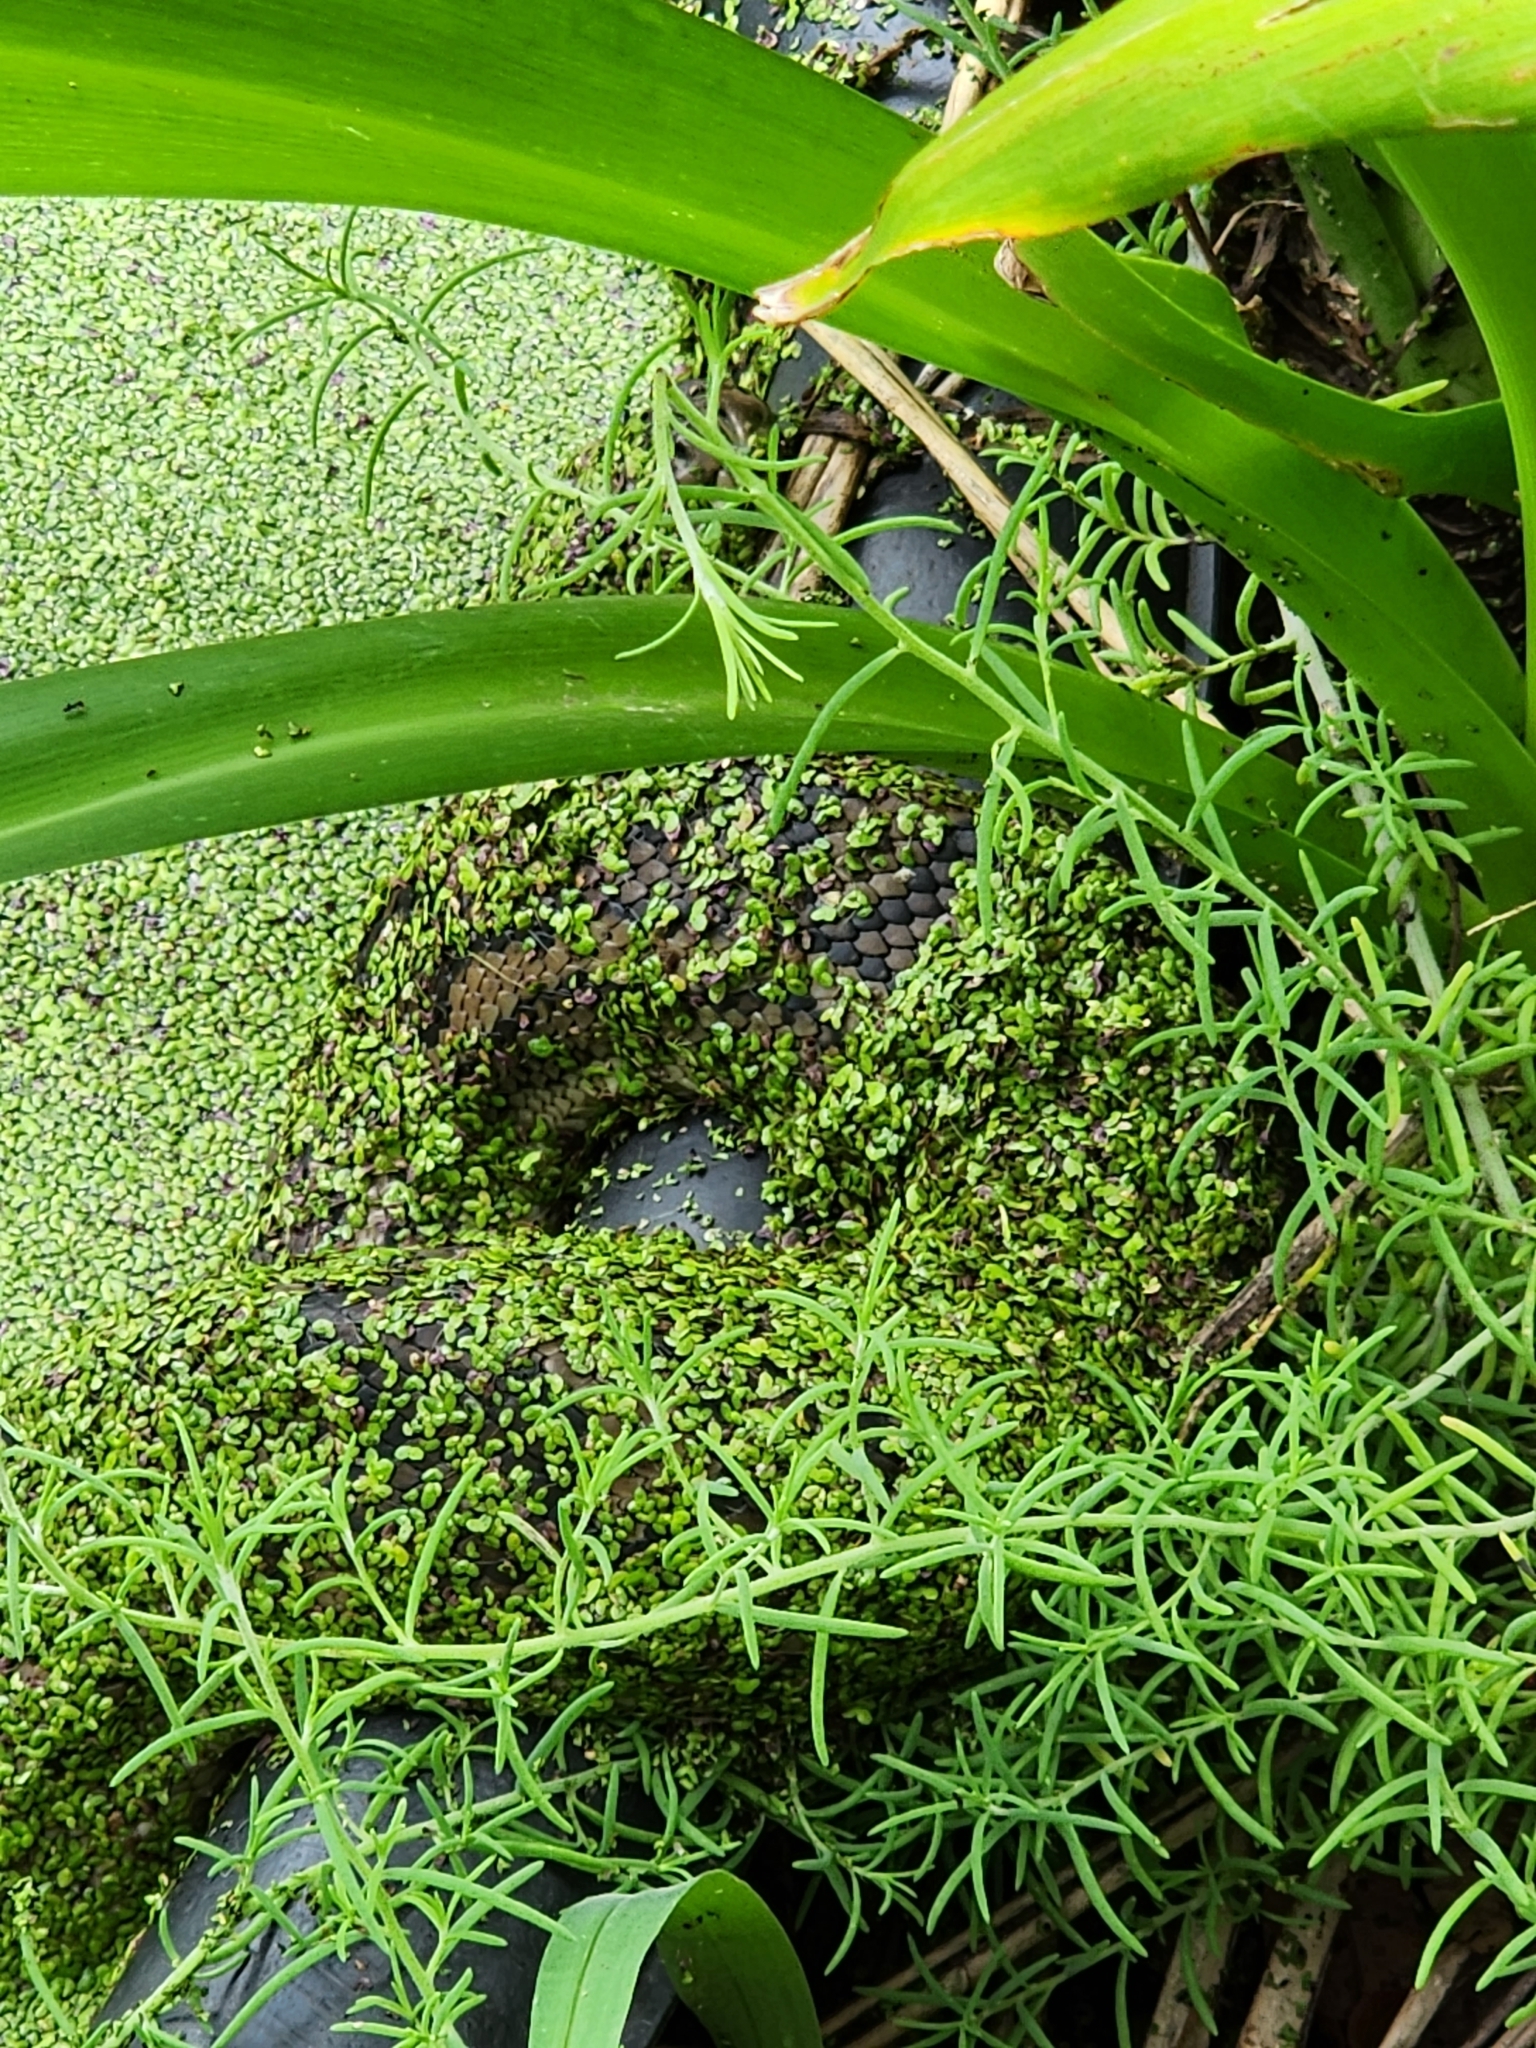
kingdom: Animalia
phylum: Chordata
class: Squamata
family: Pythonidae
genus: Morelia
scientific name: Morelia spilota
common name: Carpet python
